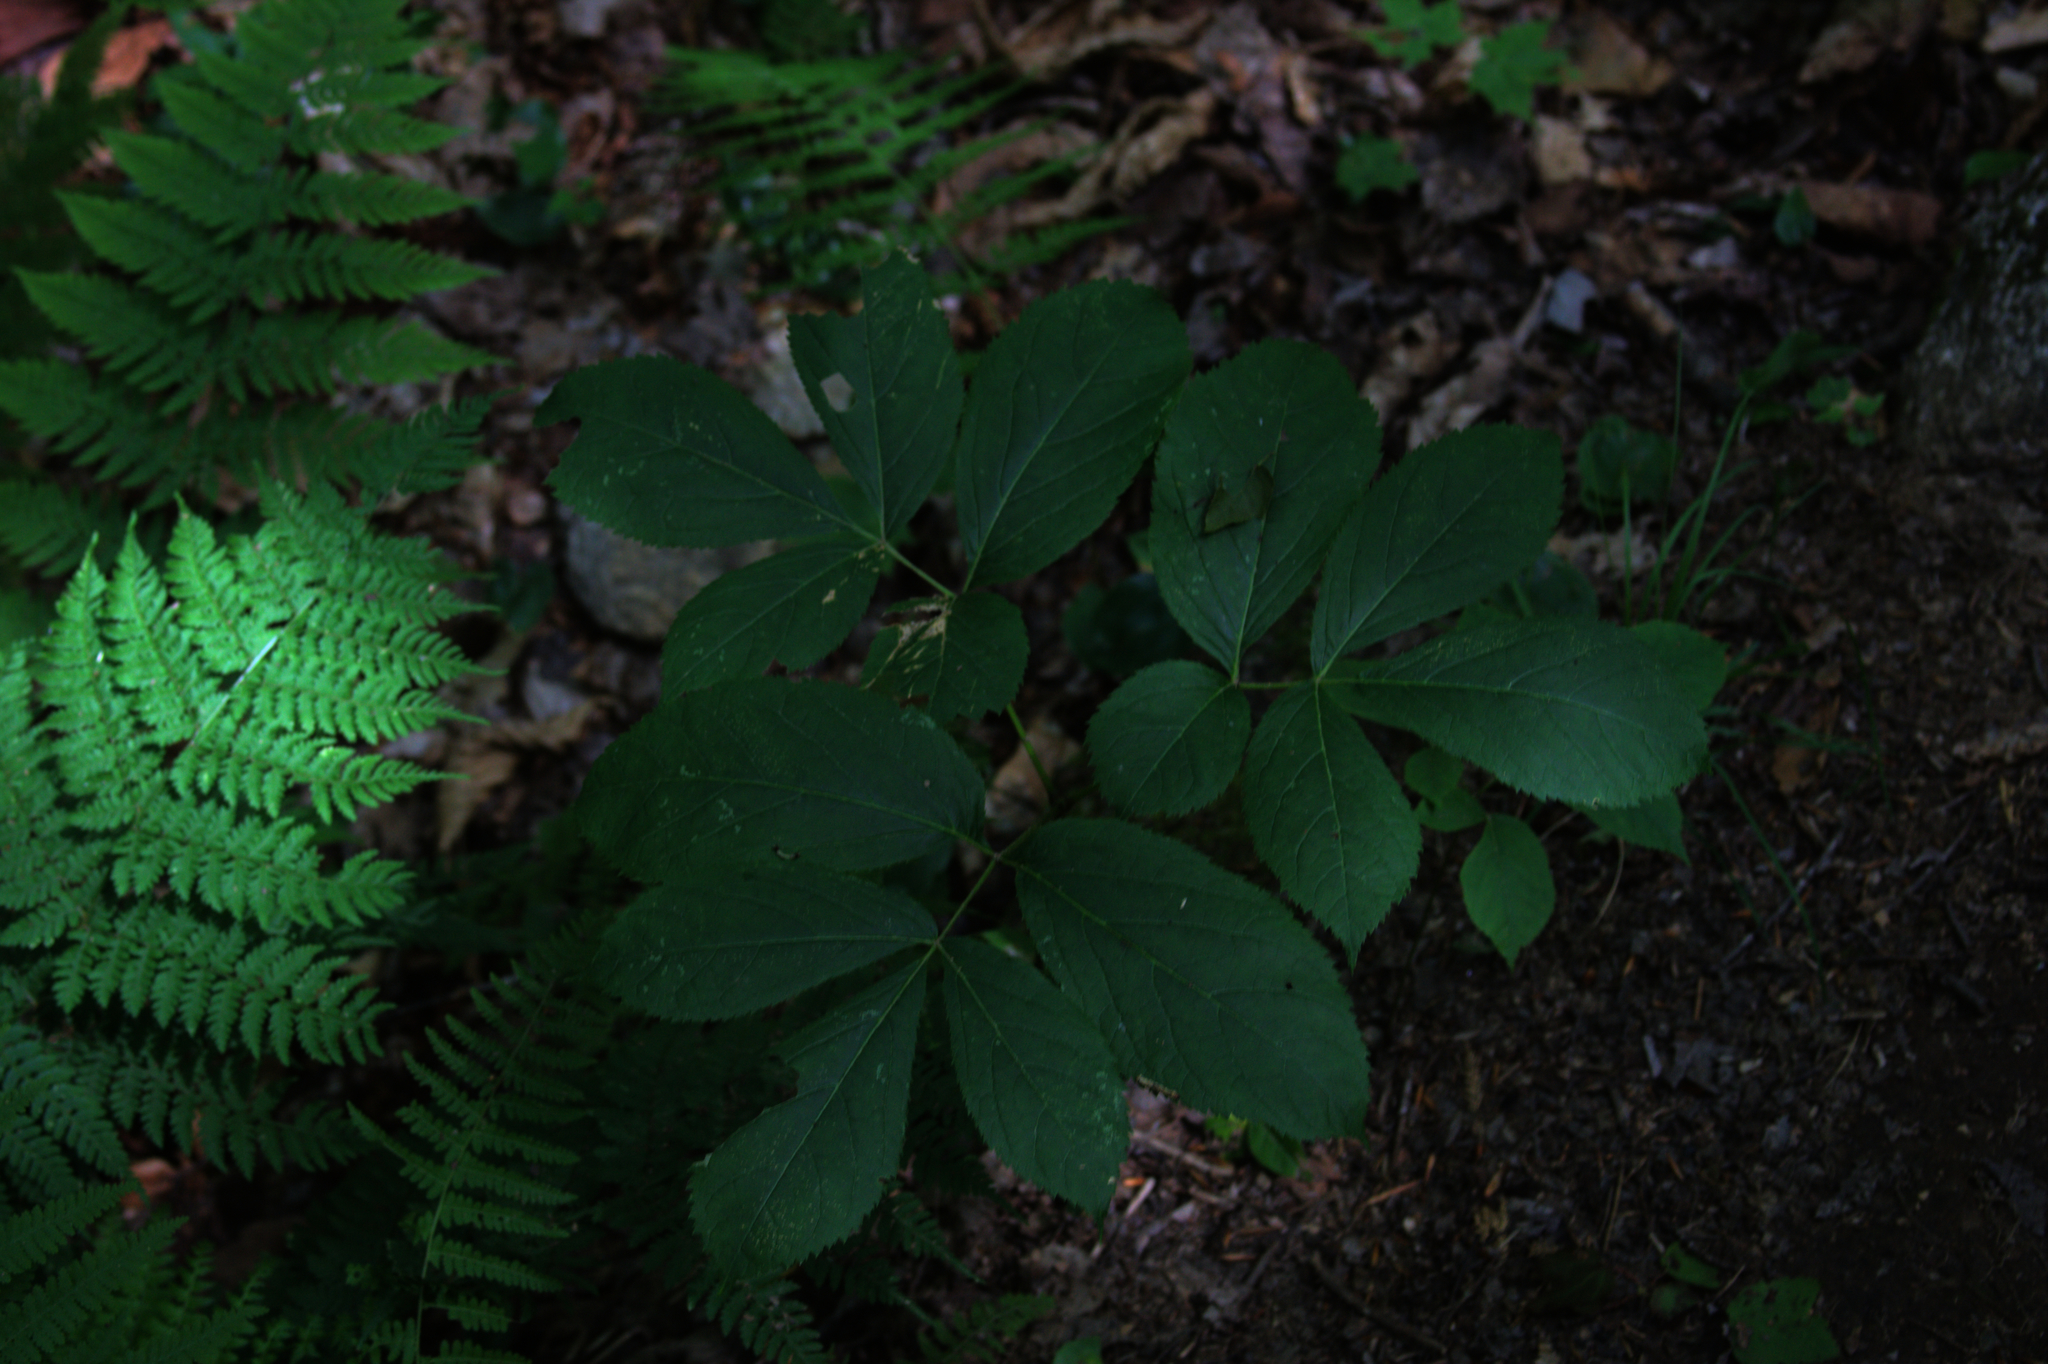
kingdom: Plantae
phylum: Tracheophyta
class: Magnoliopsida
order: Apiales
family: Araliaceae
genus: Aralia
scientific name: Aralia nudicaulis
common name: Wild sarsaparilla
